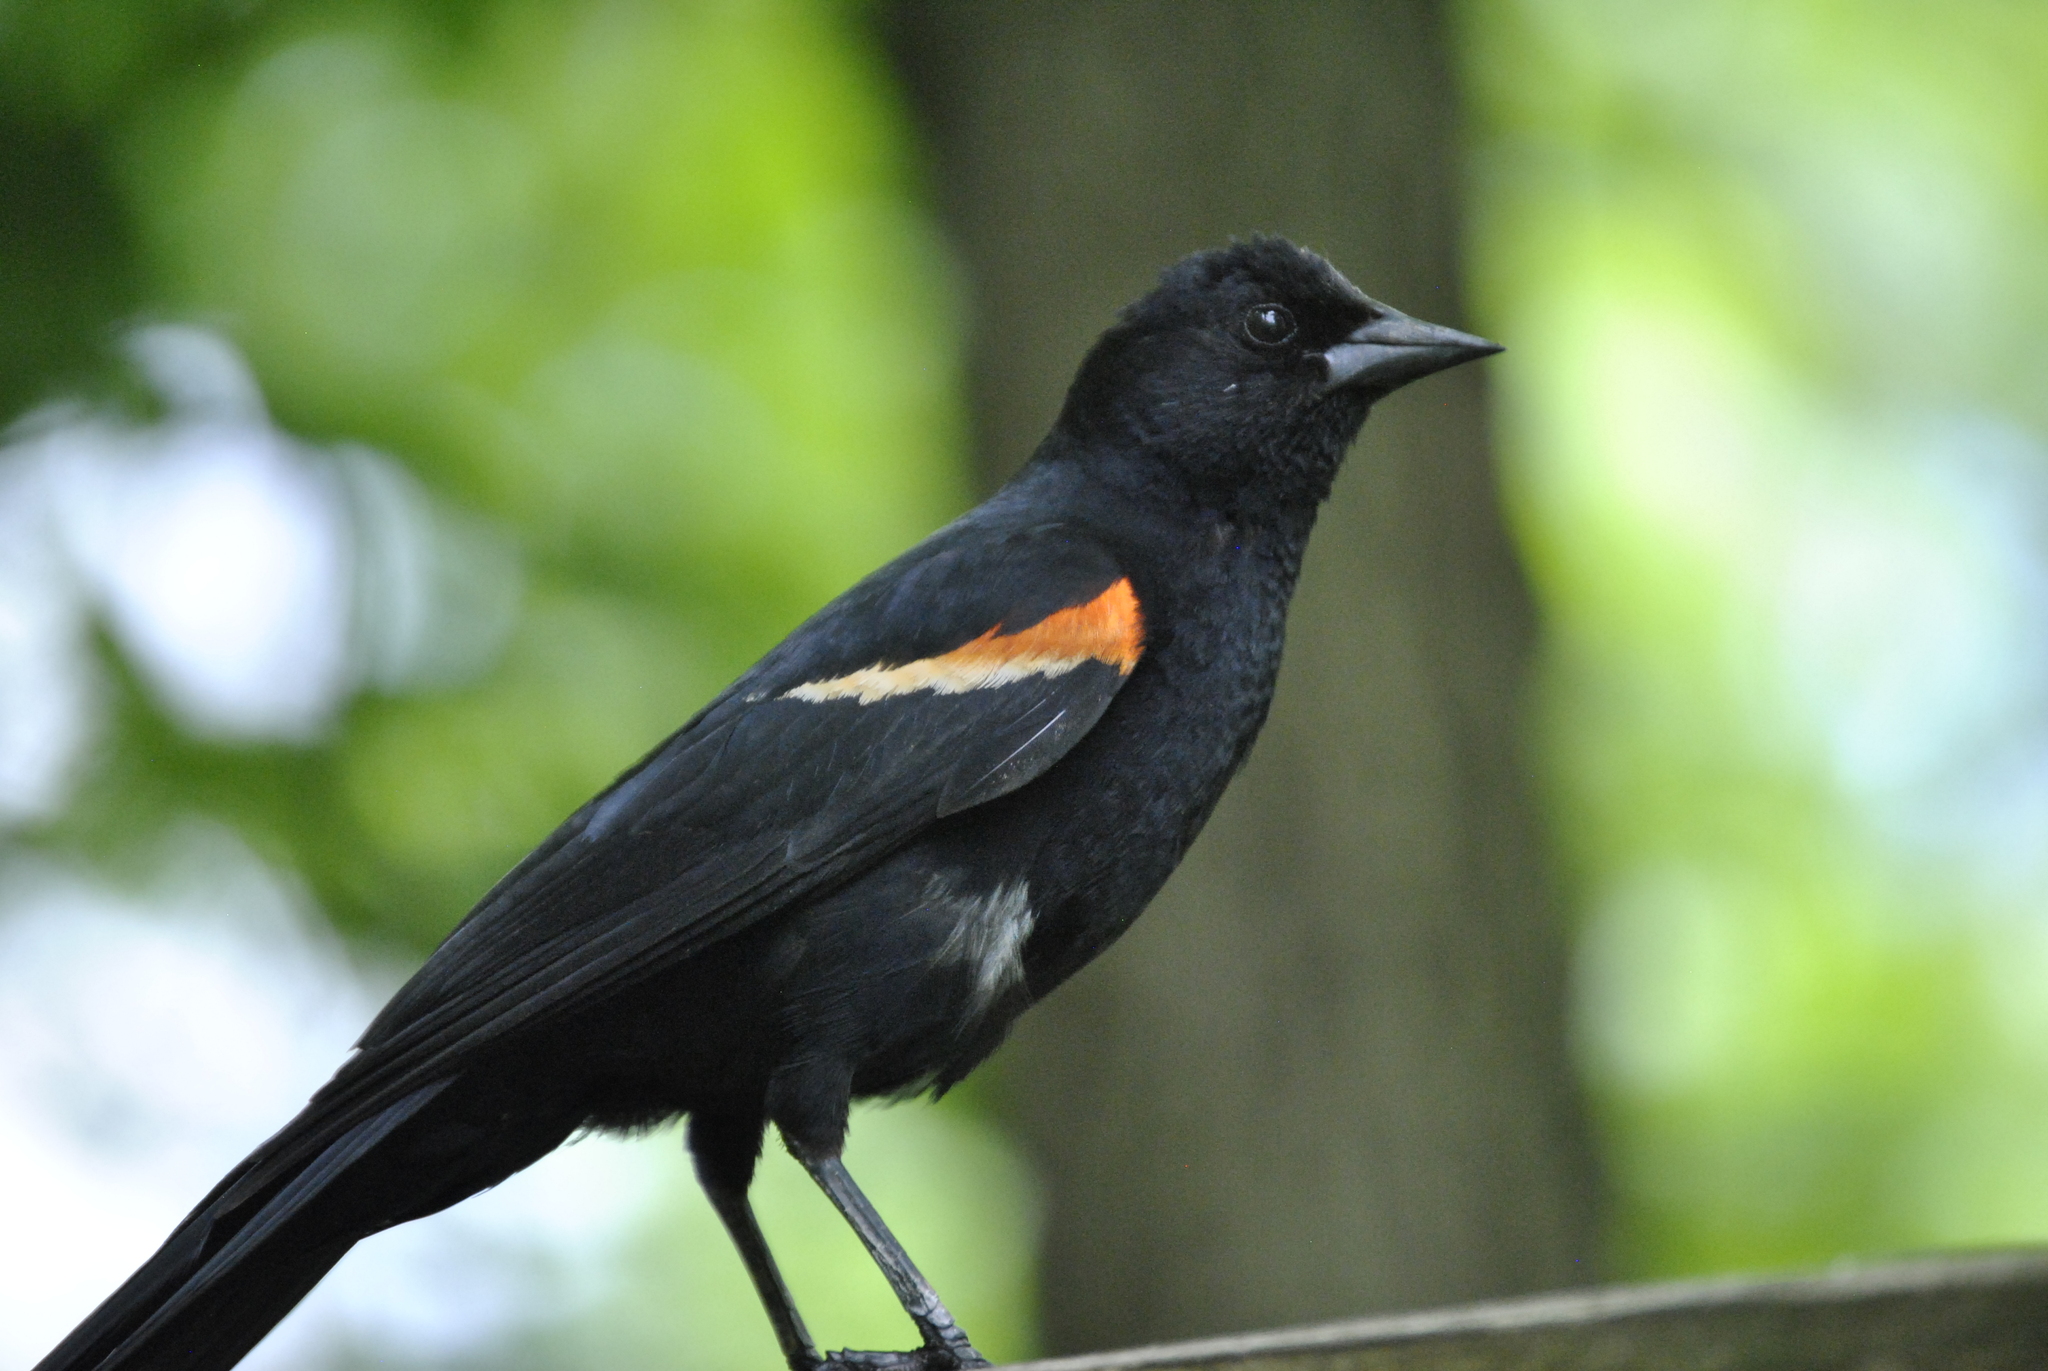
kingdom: Animalia
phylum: Chordata
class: Aves
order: Passeriformes
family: Icteridae
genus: Agelaius
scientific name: Agelaius phoeniceus
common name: Red-winged blackbird
